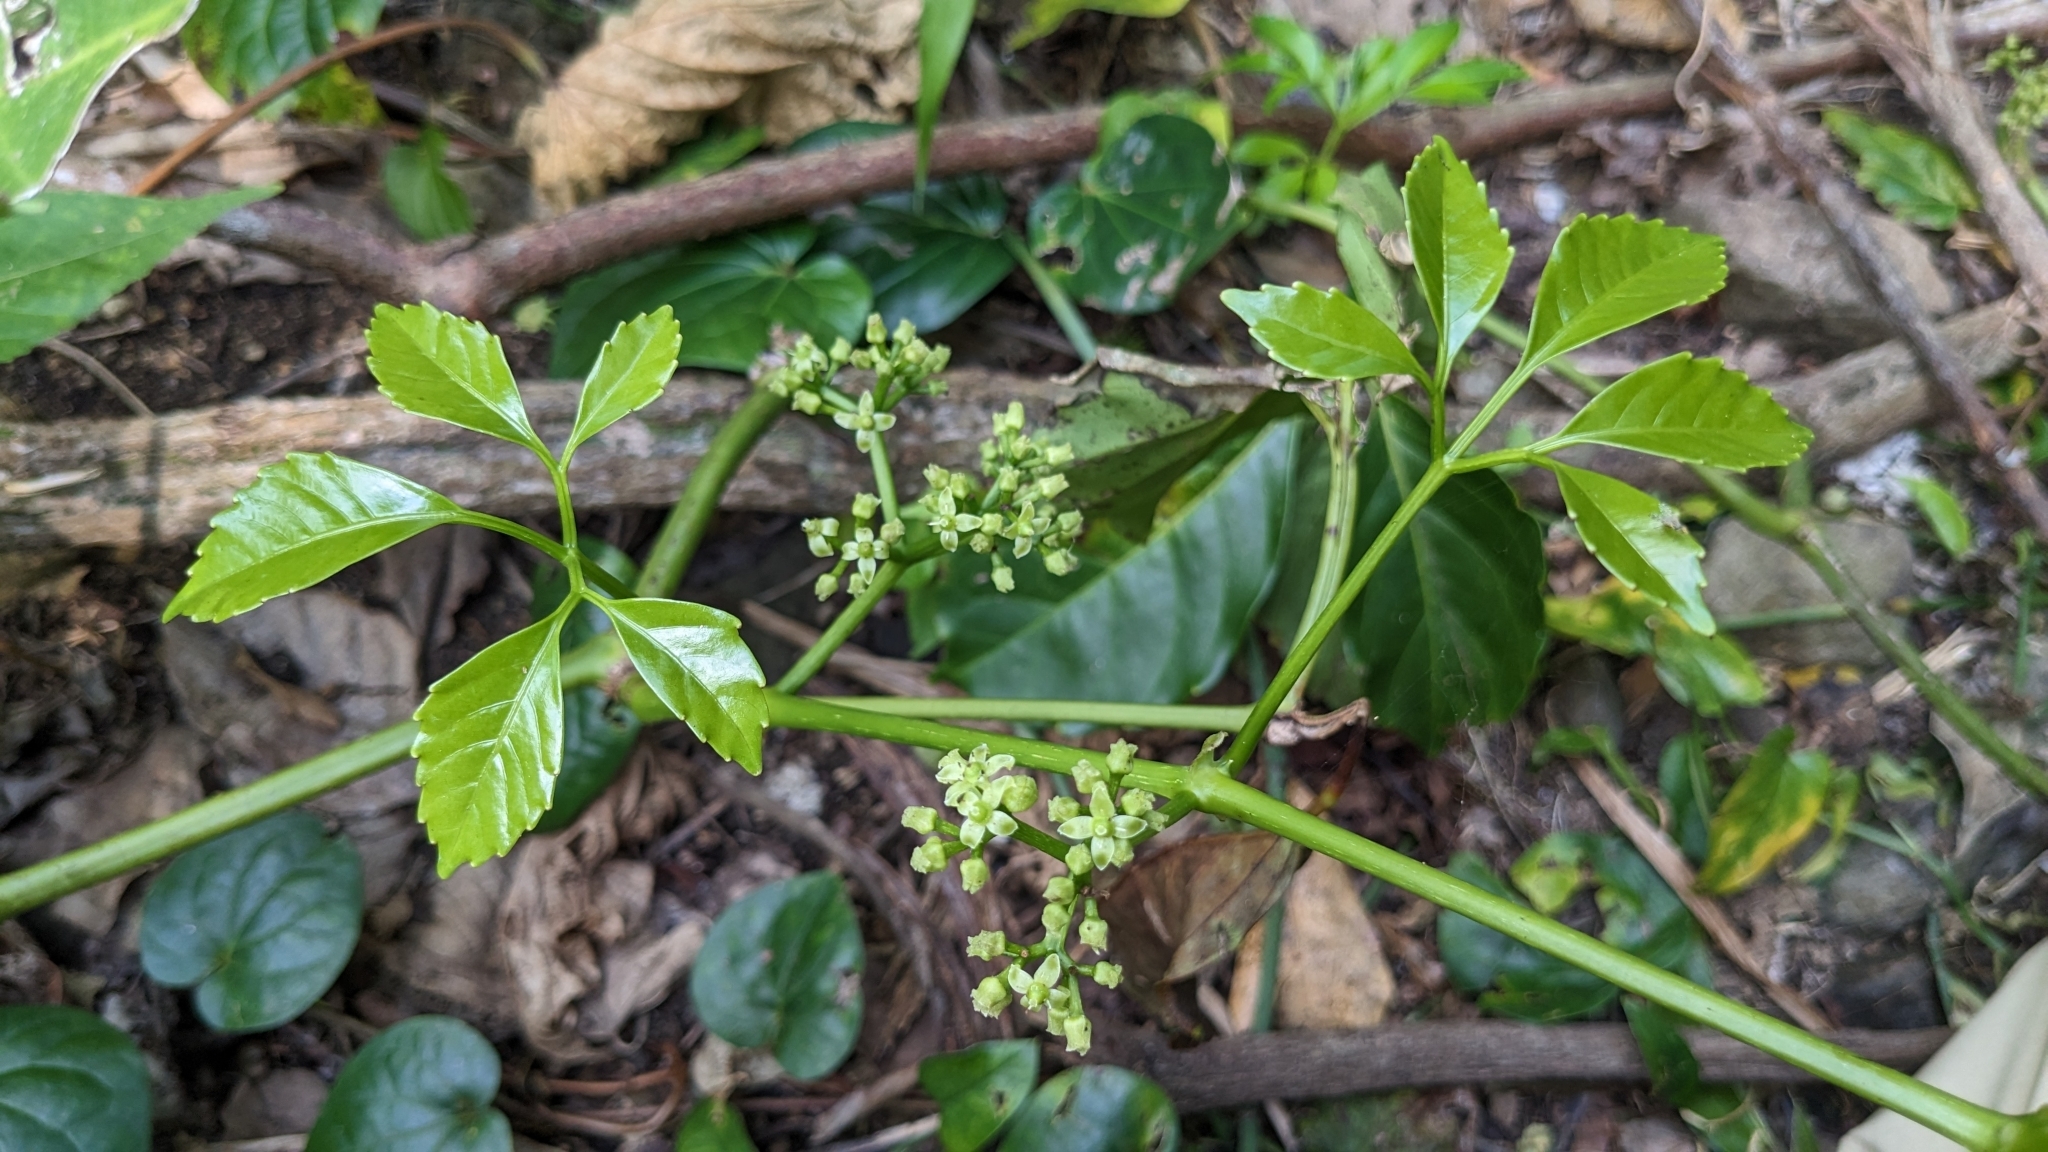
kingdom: Plantae
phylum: Tracheophyta
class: Magnoliopsida
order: Vitales
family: Vitaceae
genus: Tetrastigma
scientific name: Tetrastigma lanyuense
